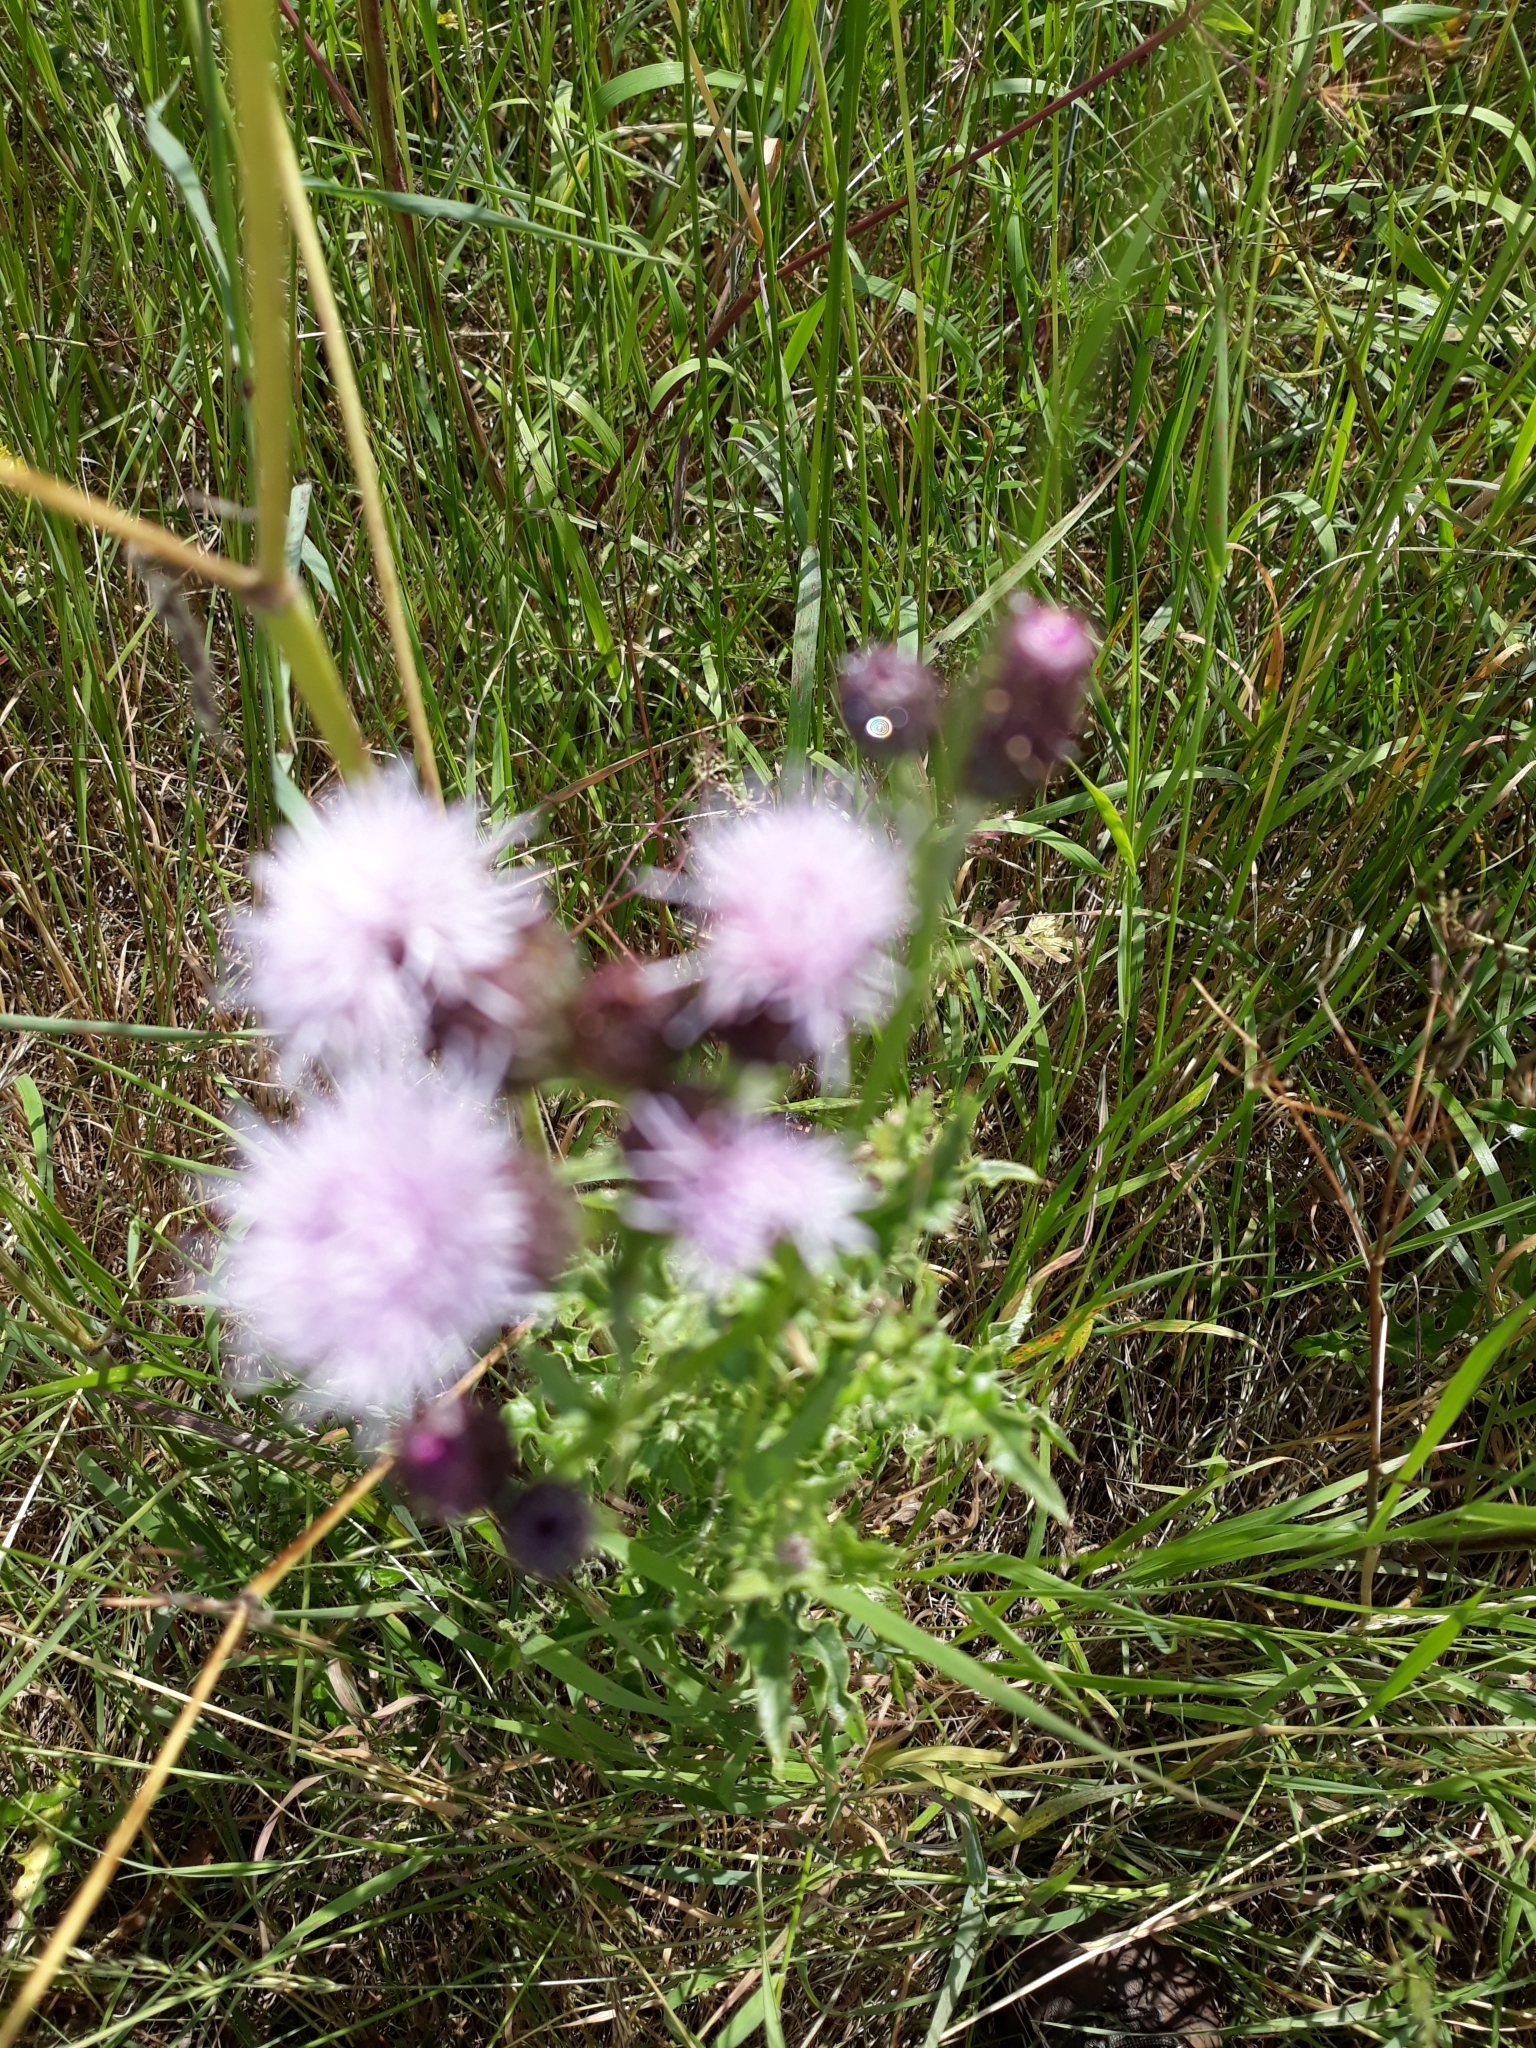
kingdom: Plantae
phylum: Tracheophyta
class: Magnoliopsida
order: Asterales
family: Asteraceae
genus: Cirsium
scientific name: Cirsium arvense
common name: Creeping thistle
